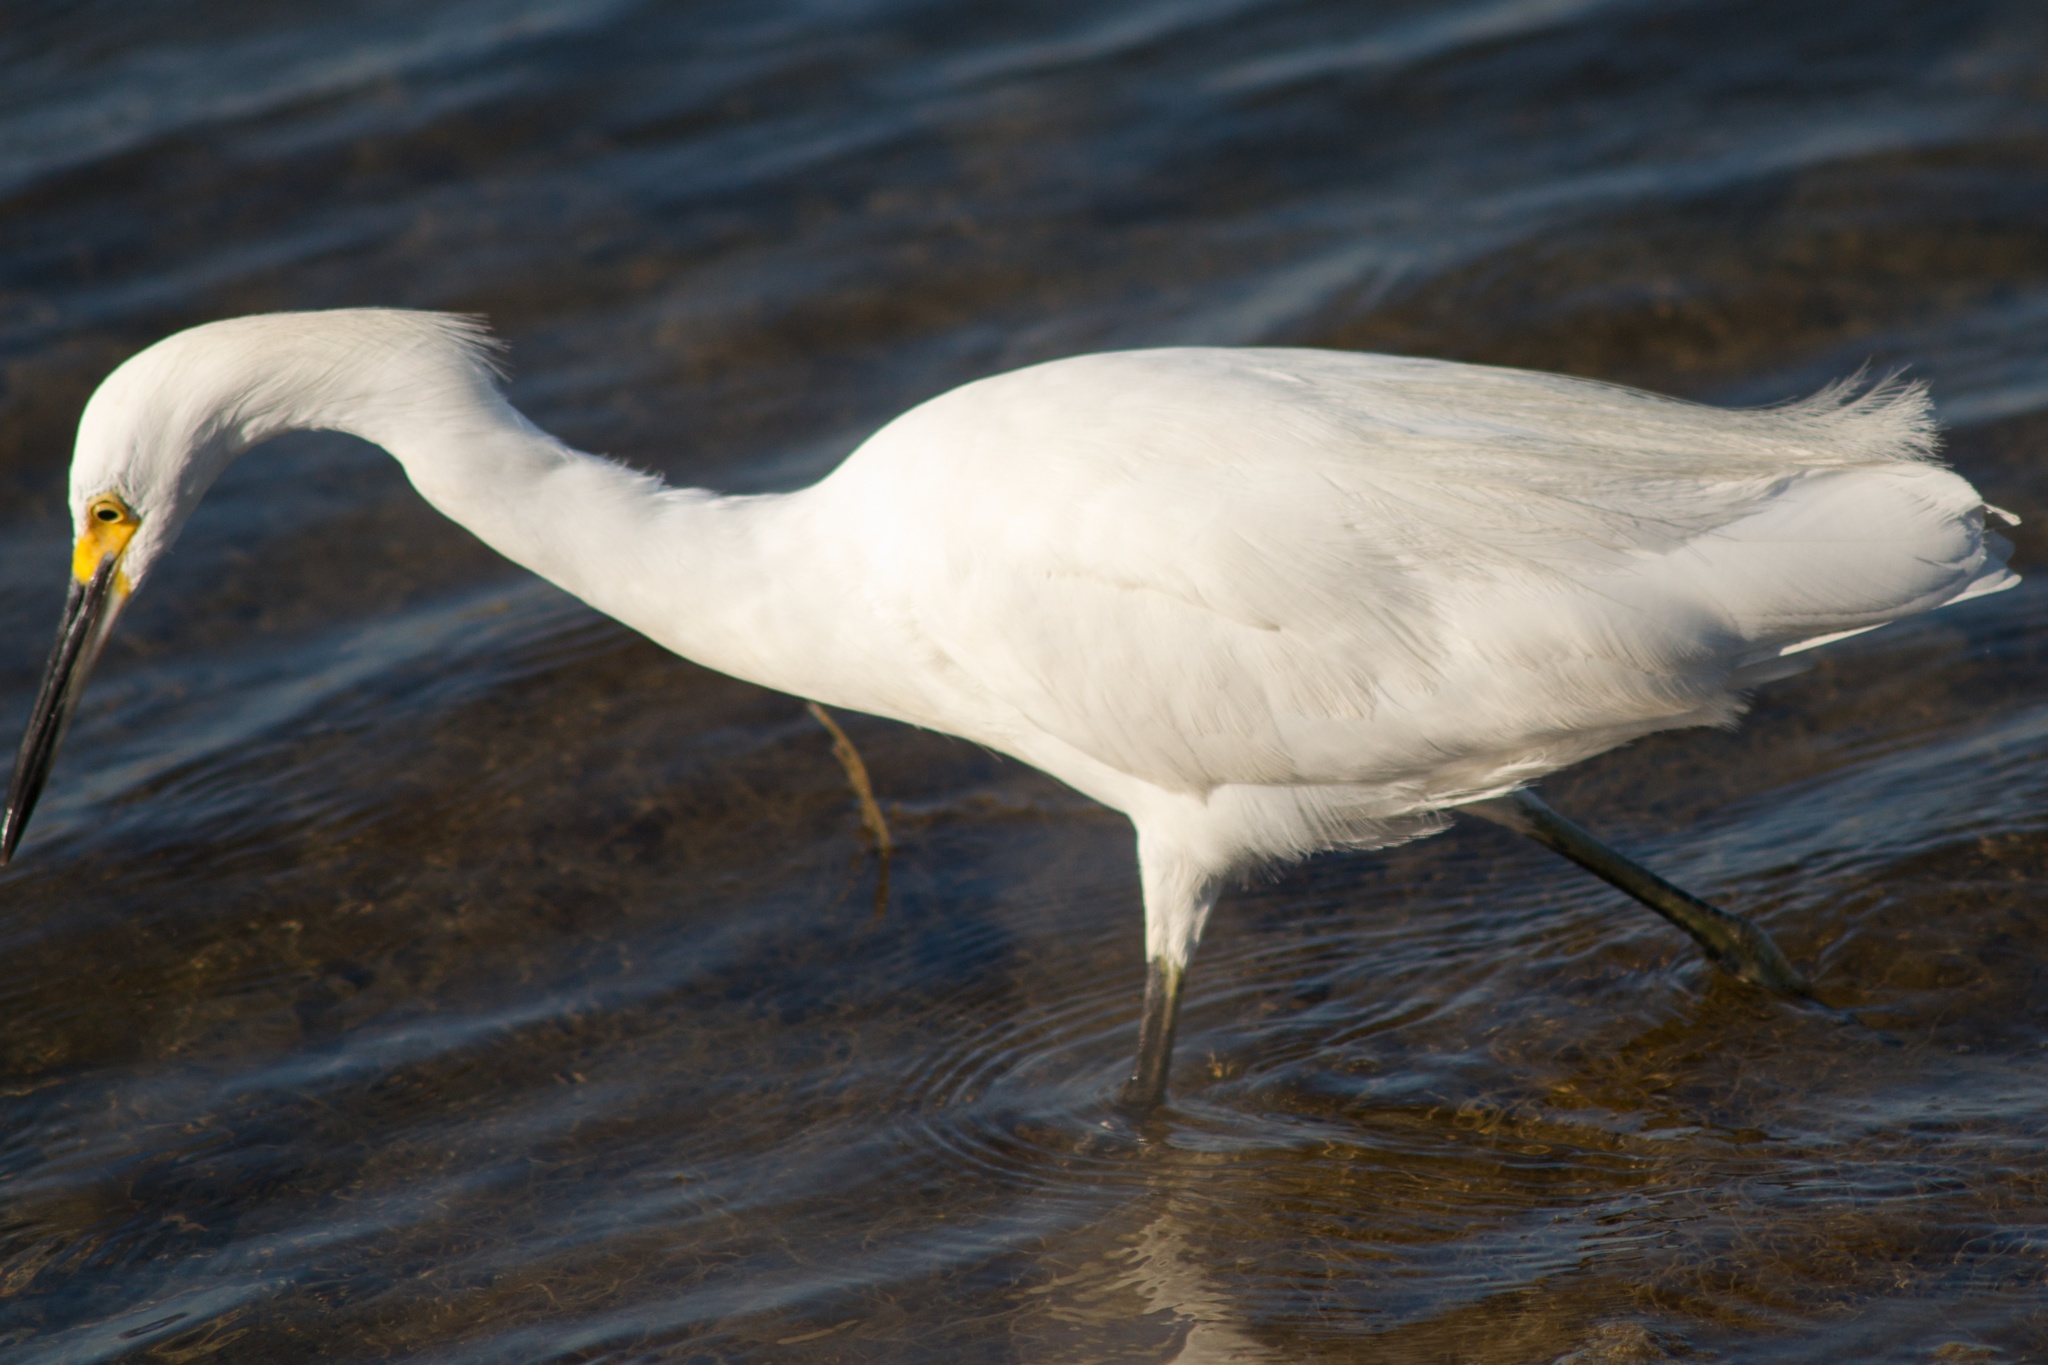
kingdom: Animalia
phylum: Chordata
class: Aves
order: Pelecaniformes
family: Ardeidae
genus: Egretta
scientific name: Egretta thula
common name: Snowy egret
